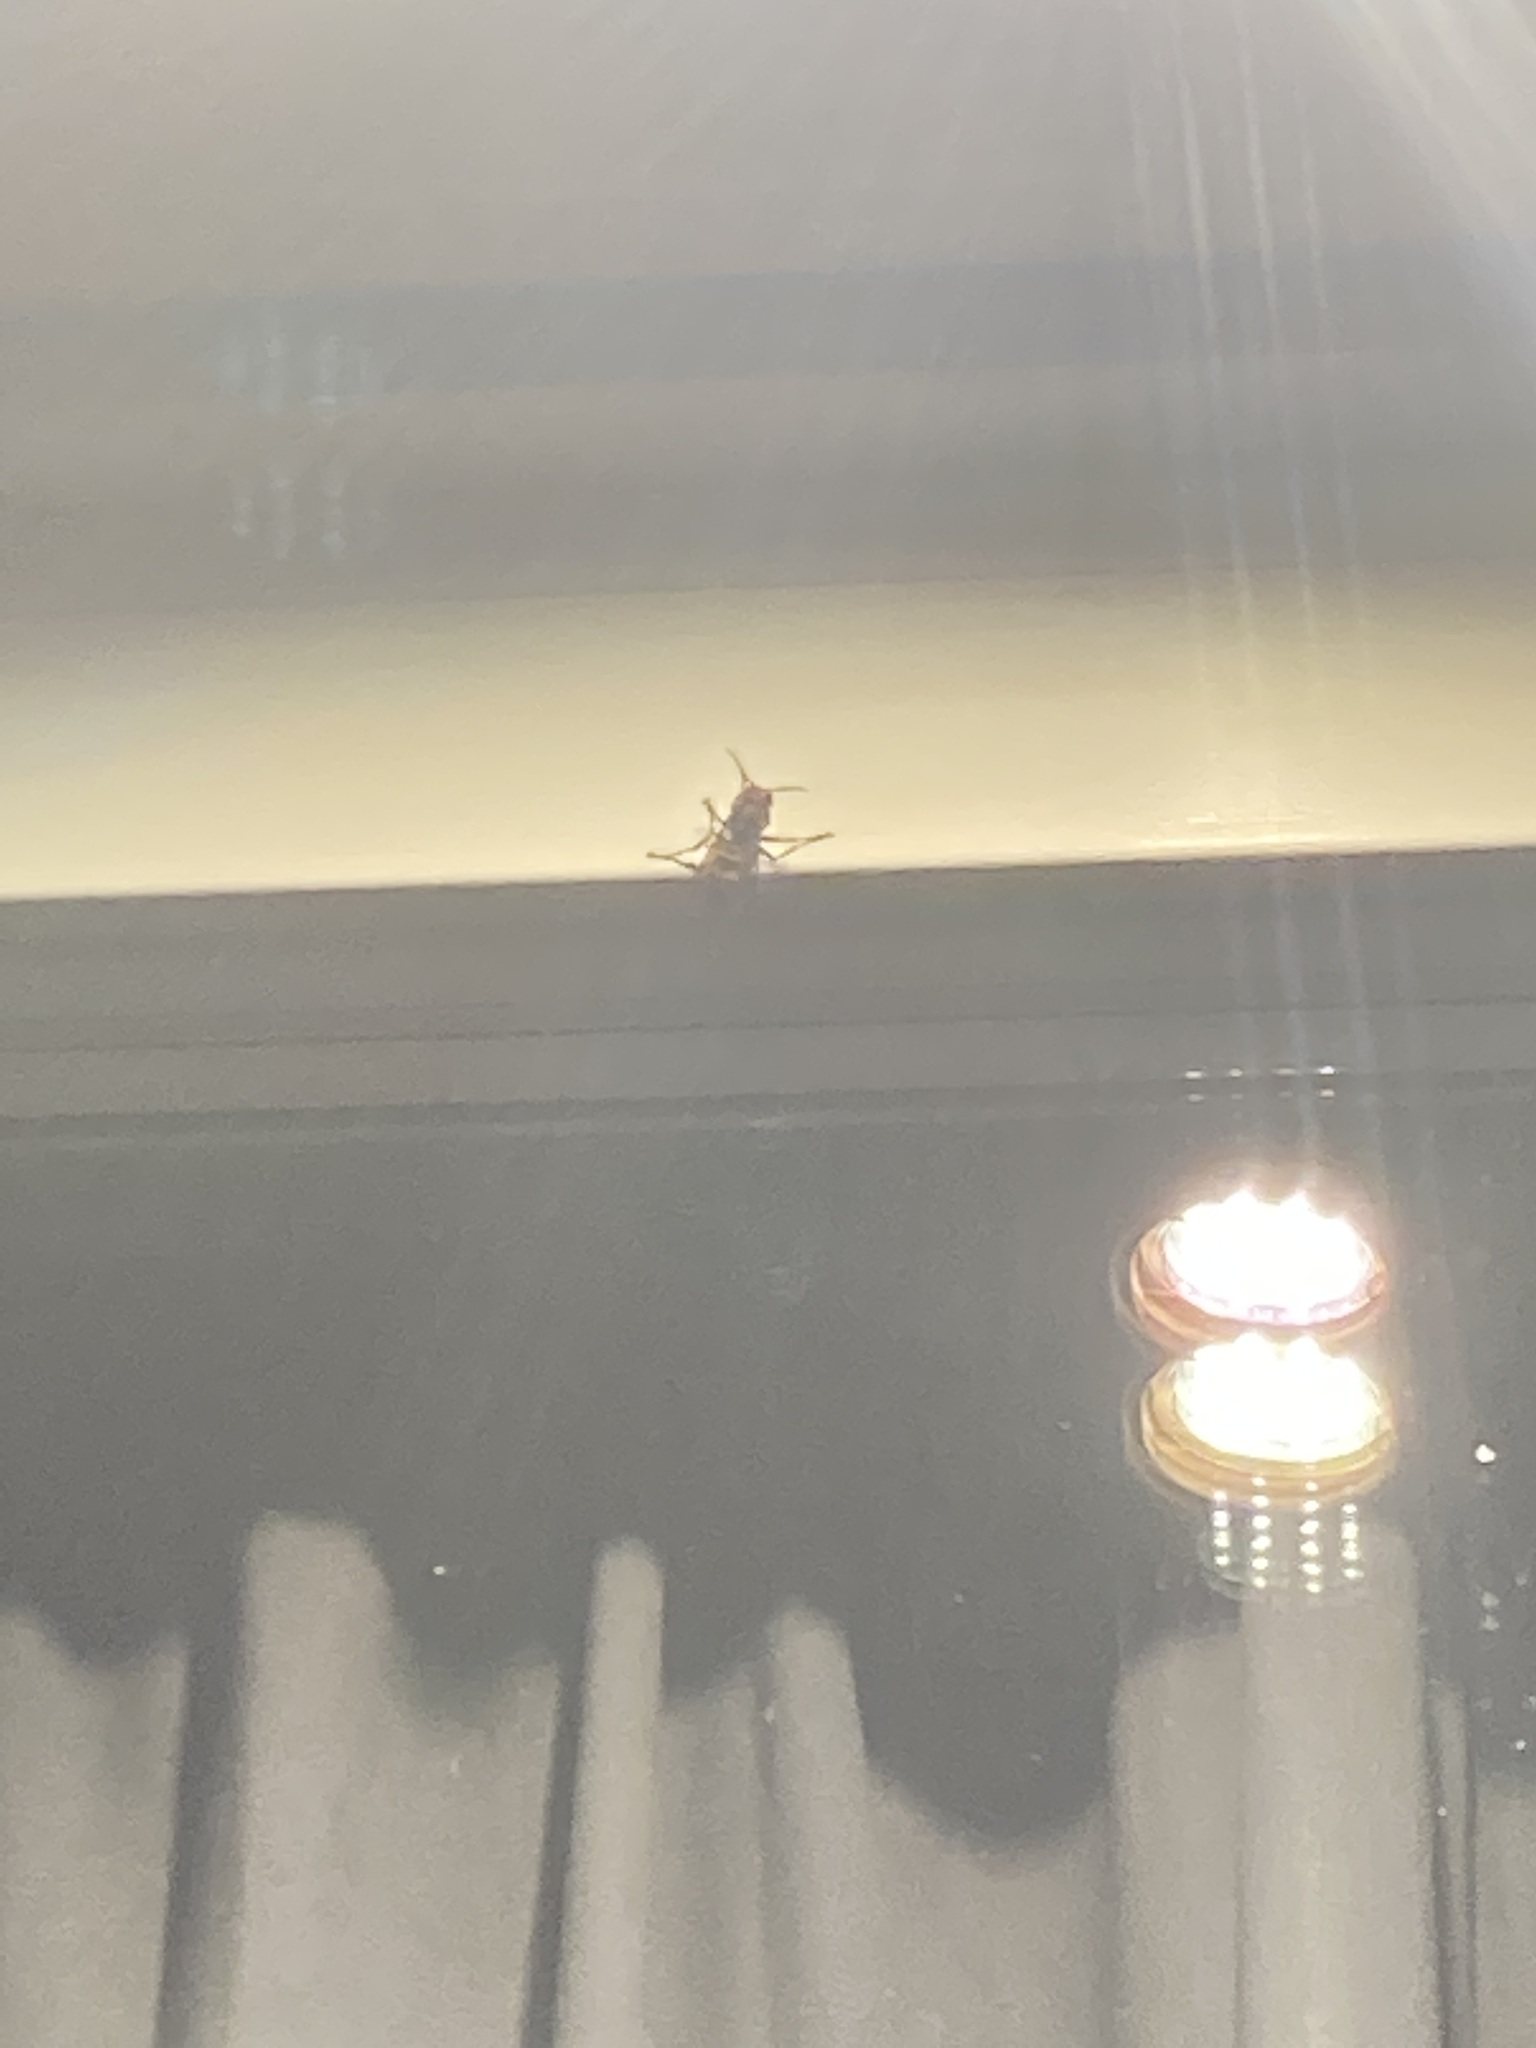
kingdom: Animalia
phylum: Arthropoda
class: Insecta
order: Hymenoptera
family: Vespidae
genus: Vespa
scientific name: Vespa crabro
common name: Hornet
